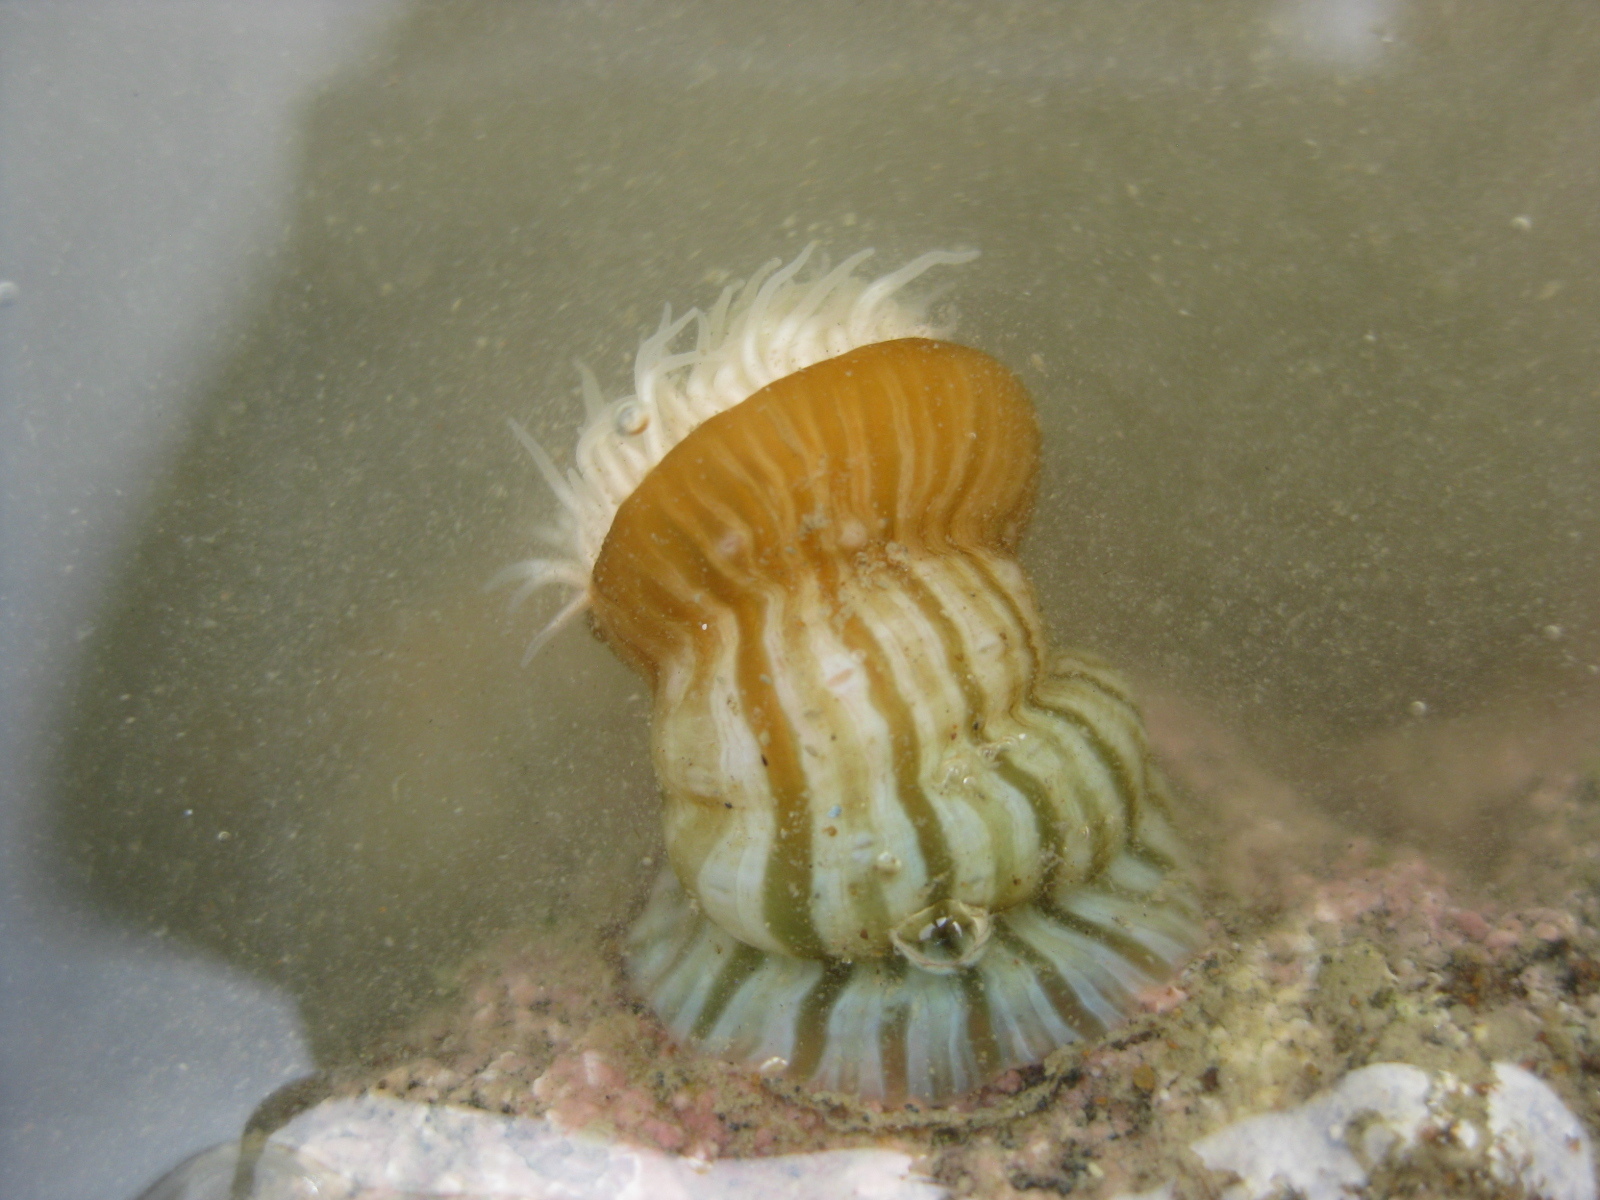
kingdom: Animalia
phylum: Cnidaria
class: Anthozoa
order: Actiniaria
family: Sagartiidae
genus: Anthothoe
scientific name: Anthothoe albocincta
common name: Orange striped anemone
